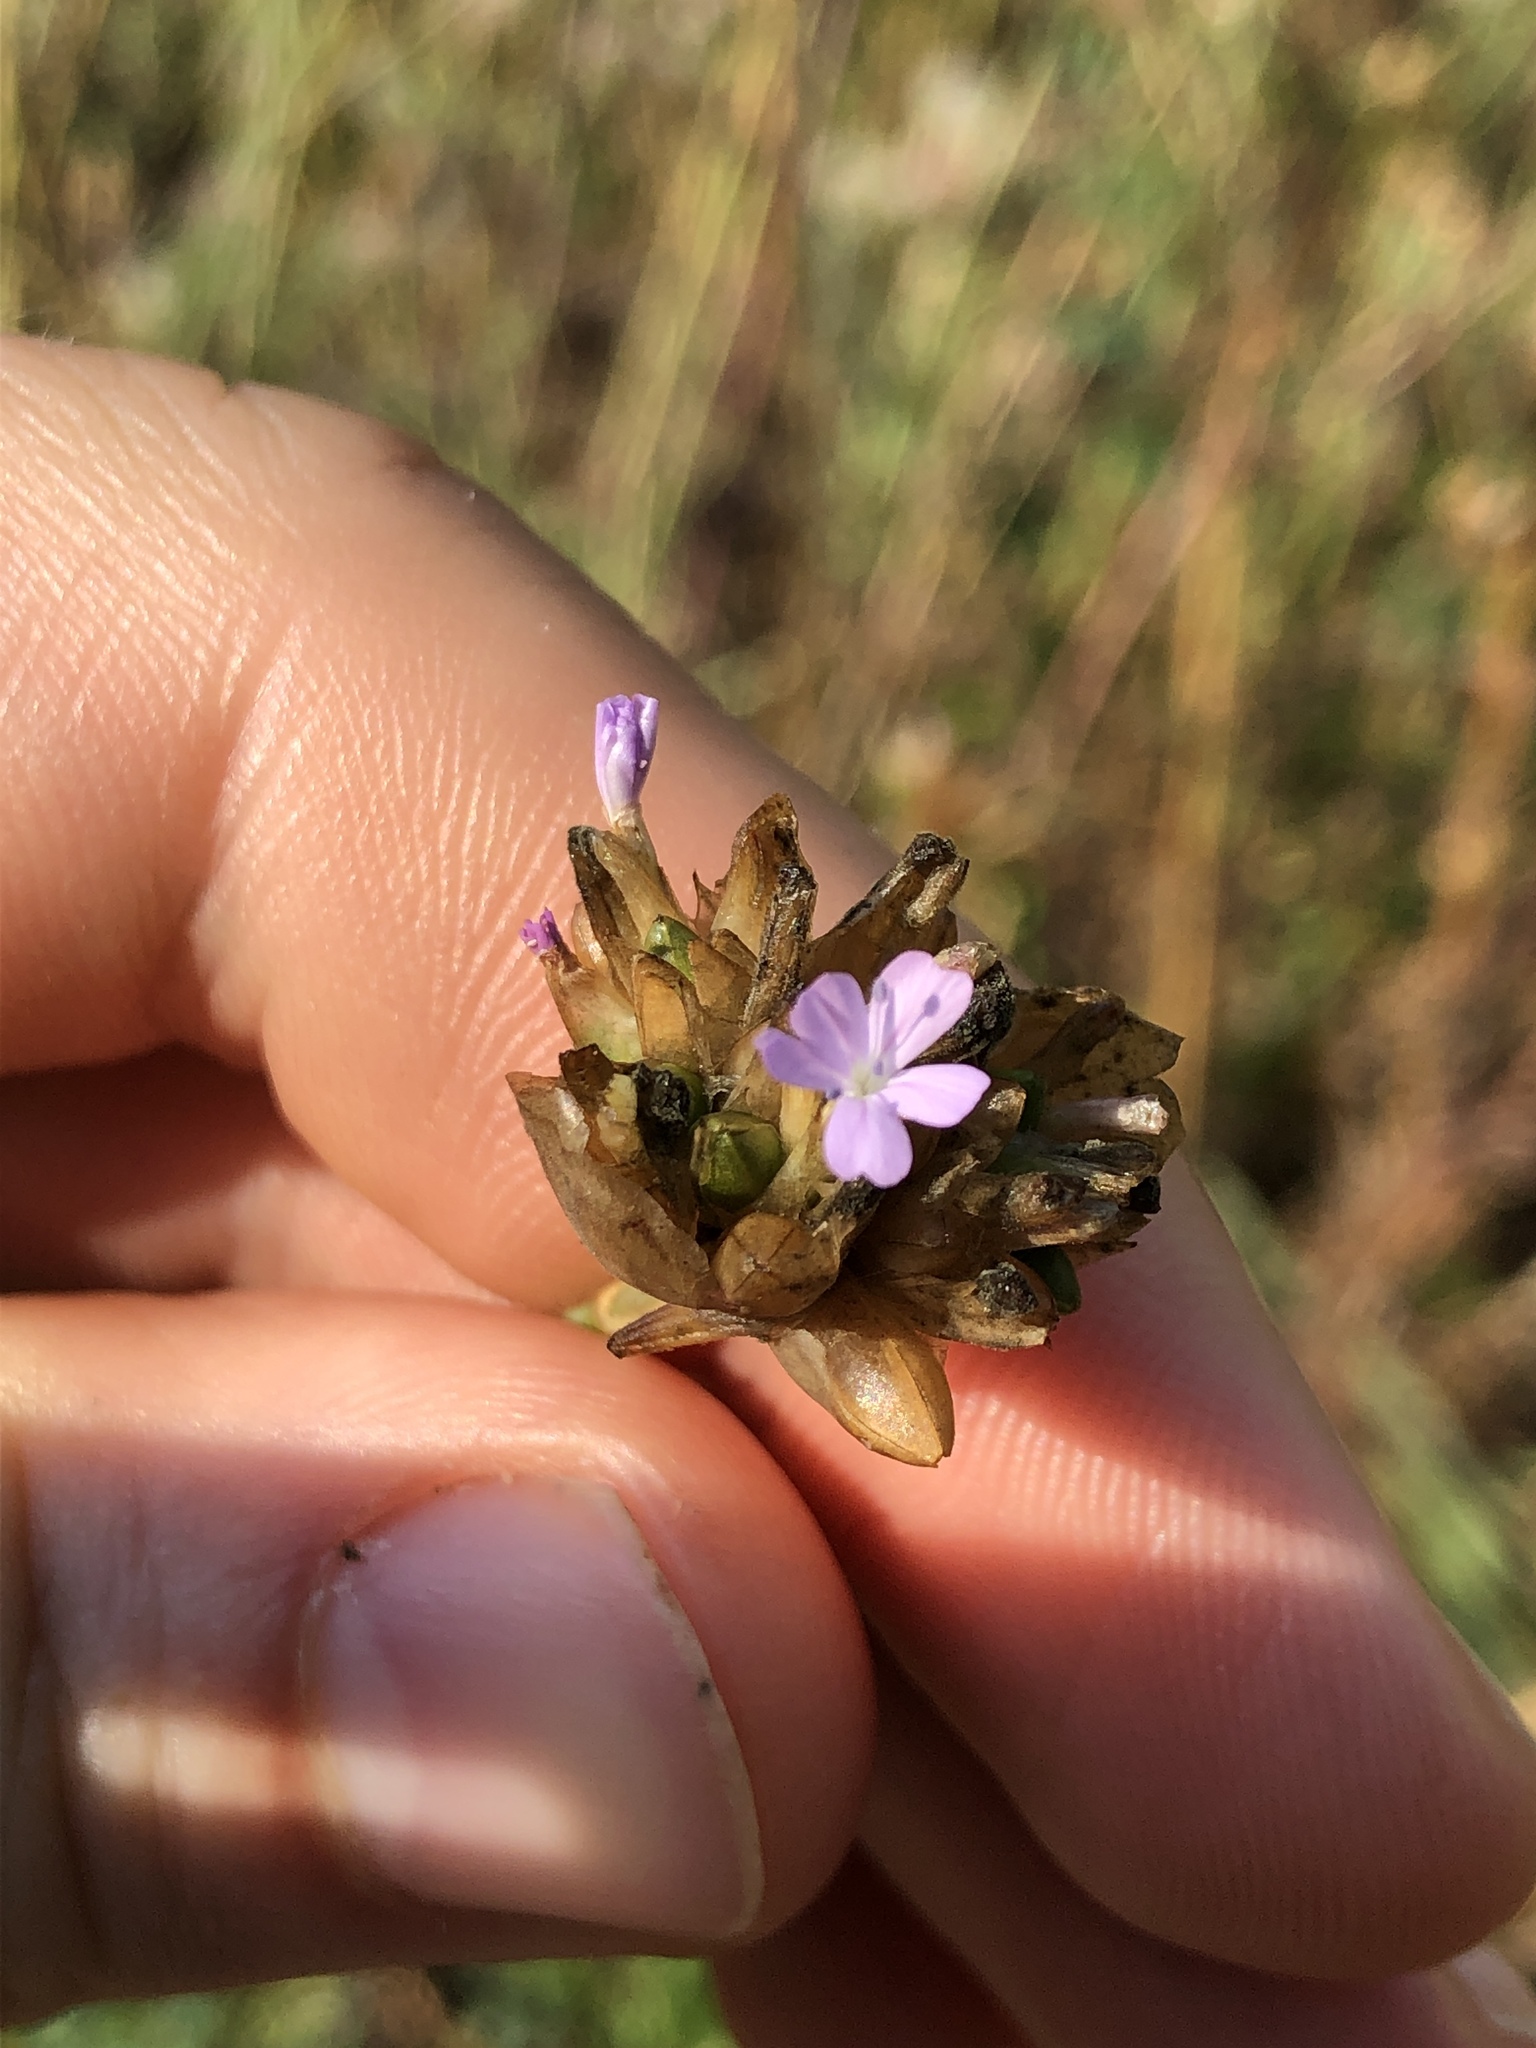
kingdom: Plantae
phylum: Tracheophyta
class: Magnoliopsida
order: Caryophyllales
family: Caryophyllaceae
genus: Petrorhagia
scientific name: Petrorhagia prolifera
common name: Proliferous pink
